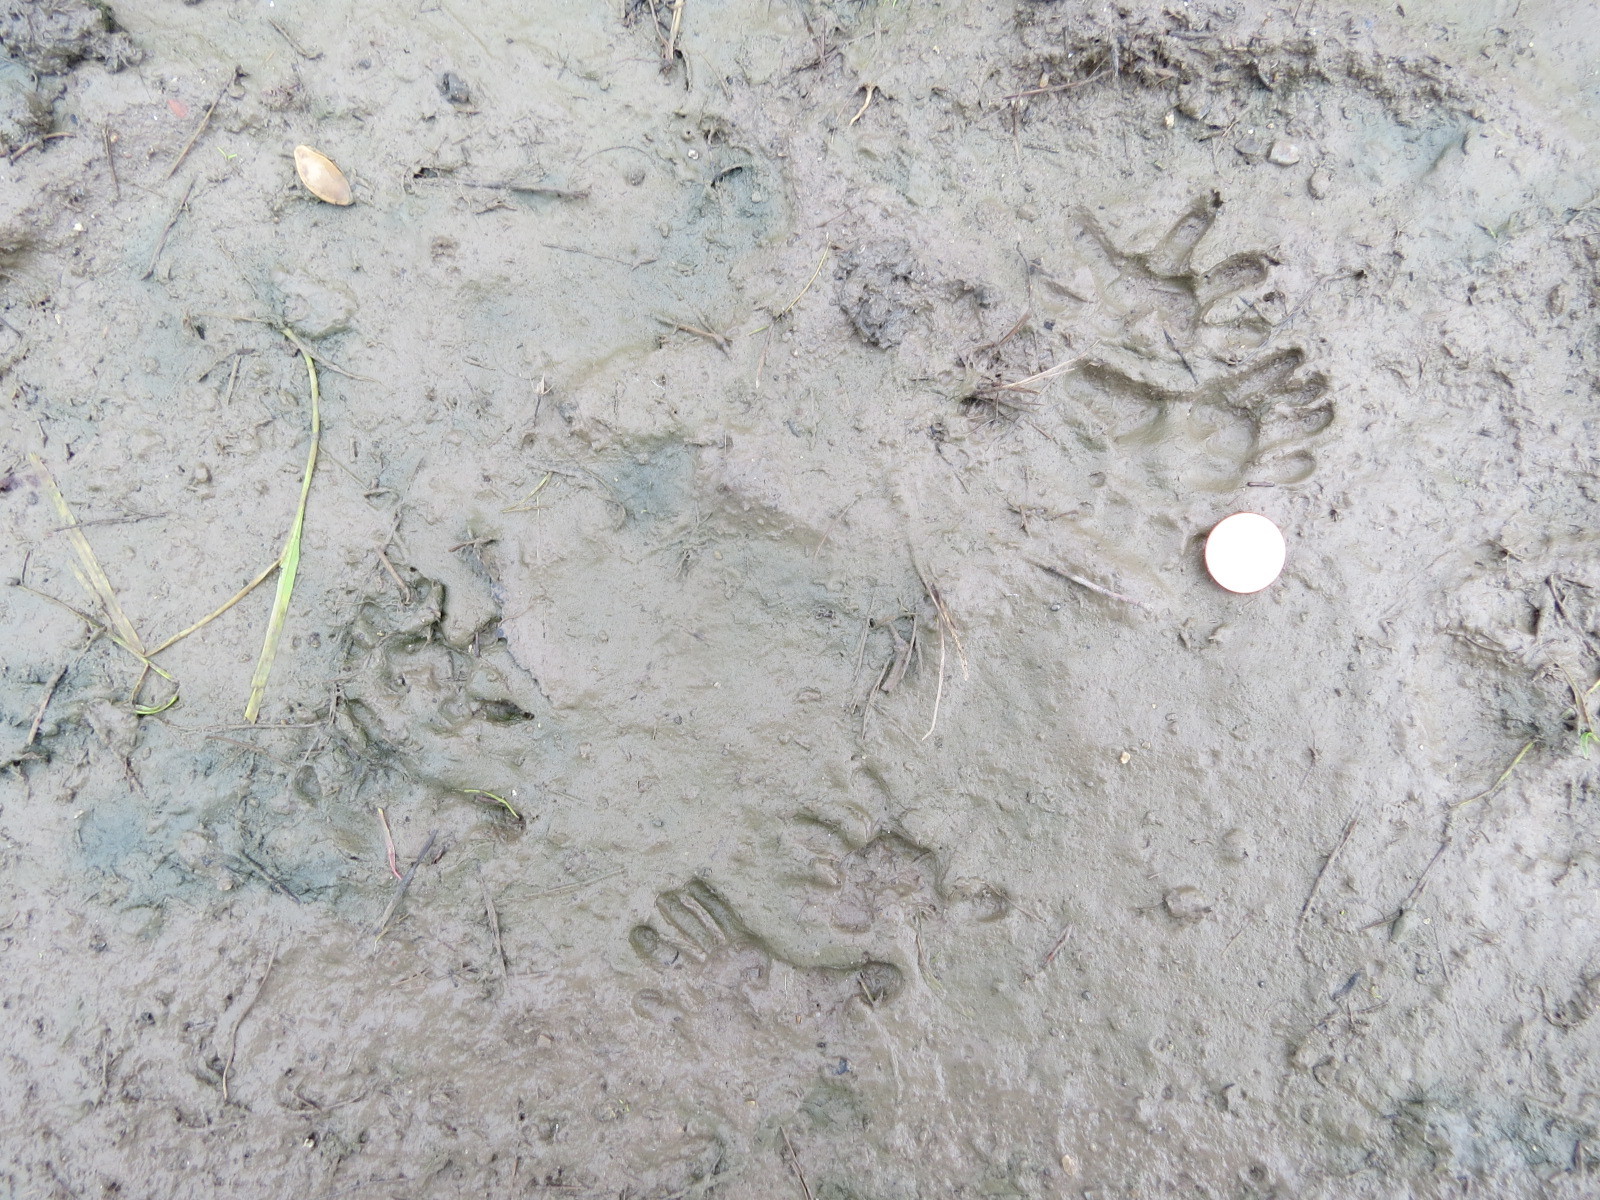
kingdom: Animalia
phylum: Chordata
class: Mammalia
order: Didelphimorphia
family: Didelphidae
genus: Didelphis
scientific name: Didelphis virginiana
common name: Virginia opossum
